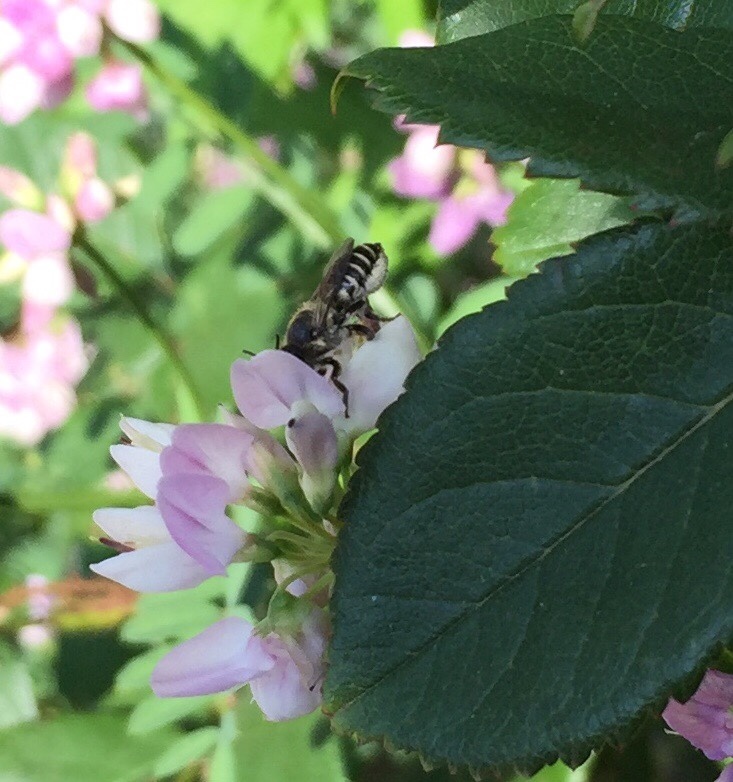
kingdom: Animalia
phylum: Arthropoda
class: Insecta
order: Hymenoptera
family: Megachilidae
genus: Megachile
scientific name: Megachile
